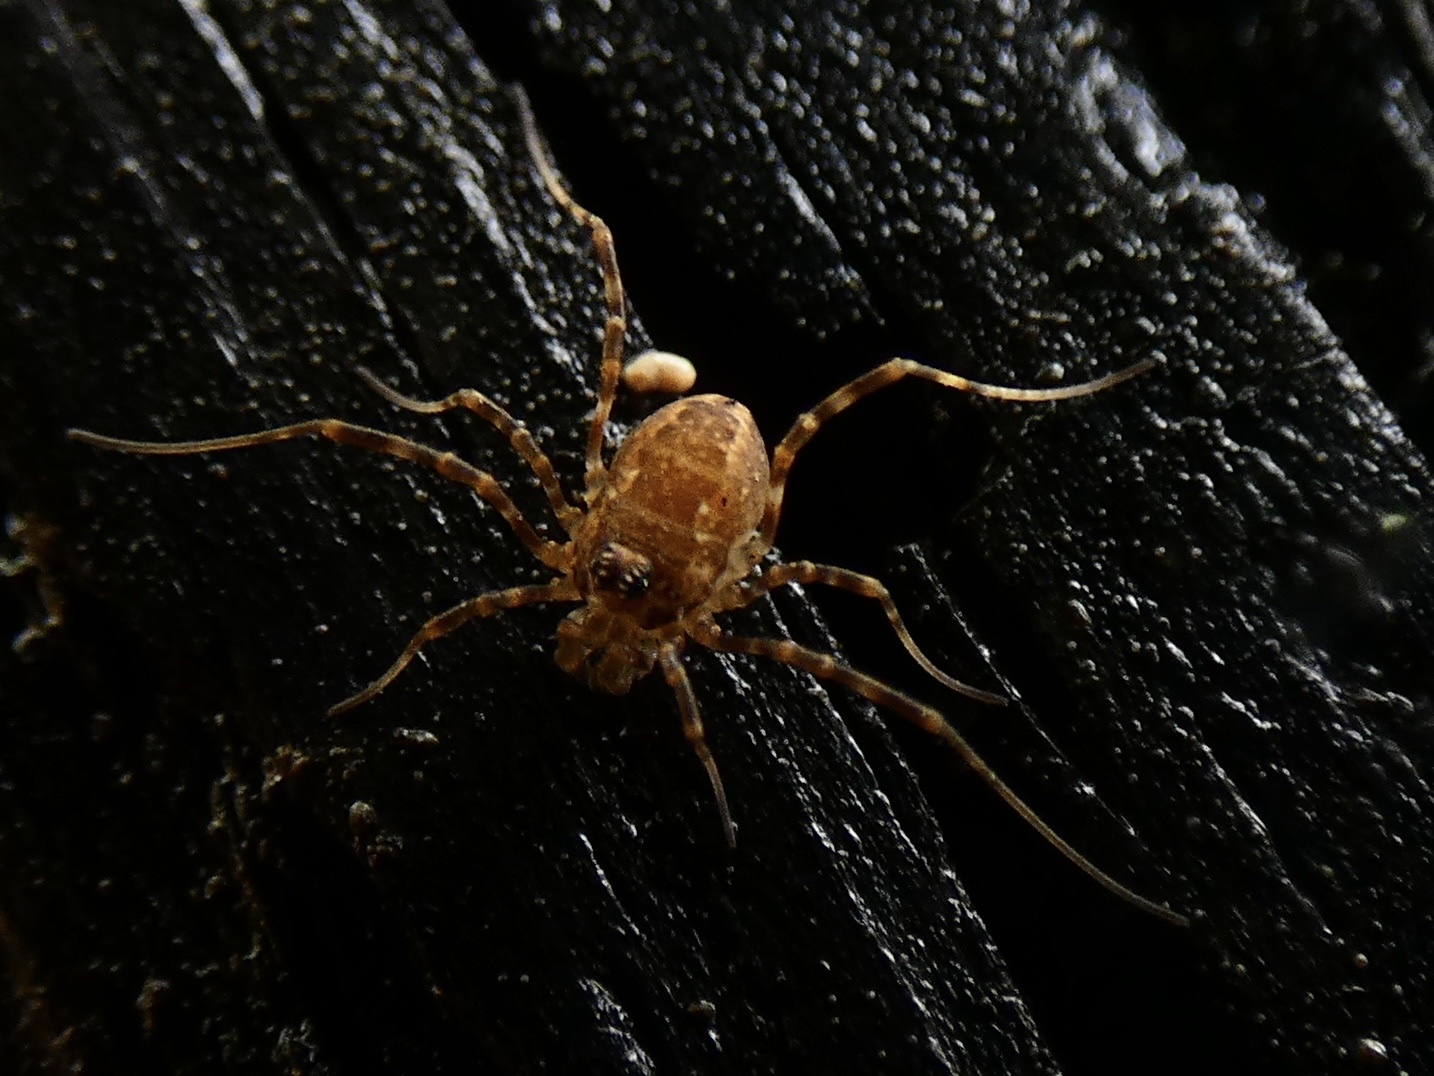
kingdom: Animalia
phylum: Arthropoda
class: Arachnida
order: Opiliones
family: Phalangiidae
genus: Rilaena
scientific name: Rilaena triangularis
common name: Spring harvestman
